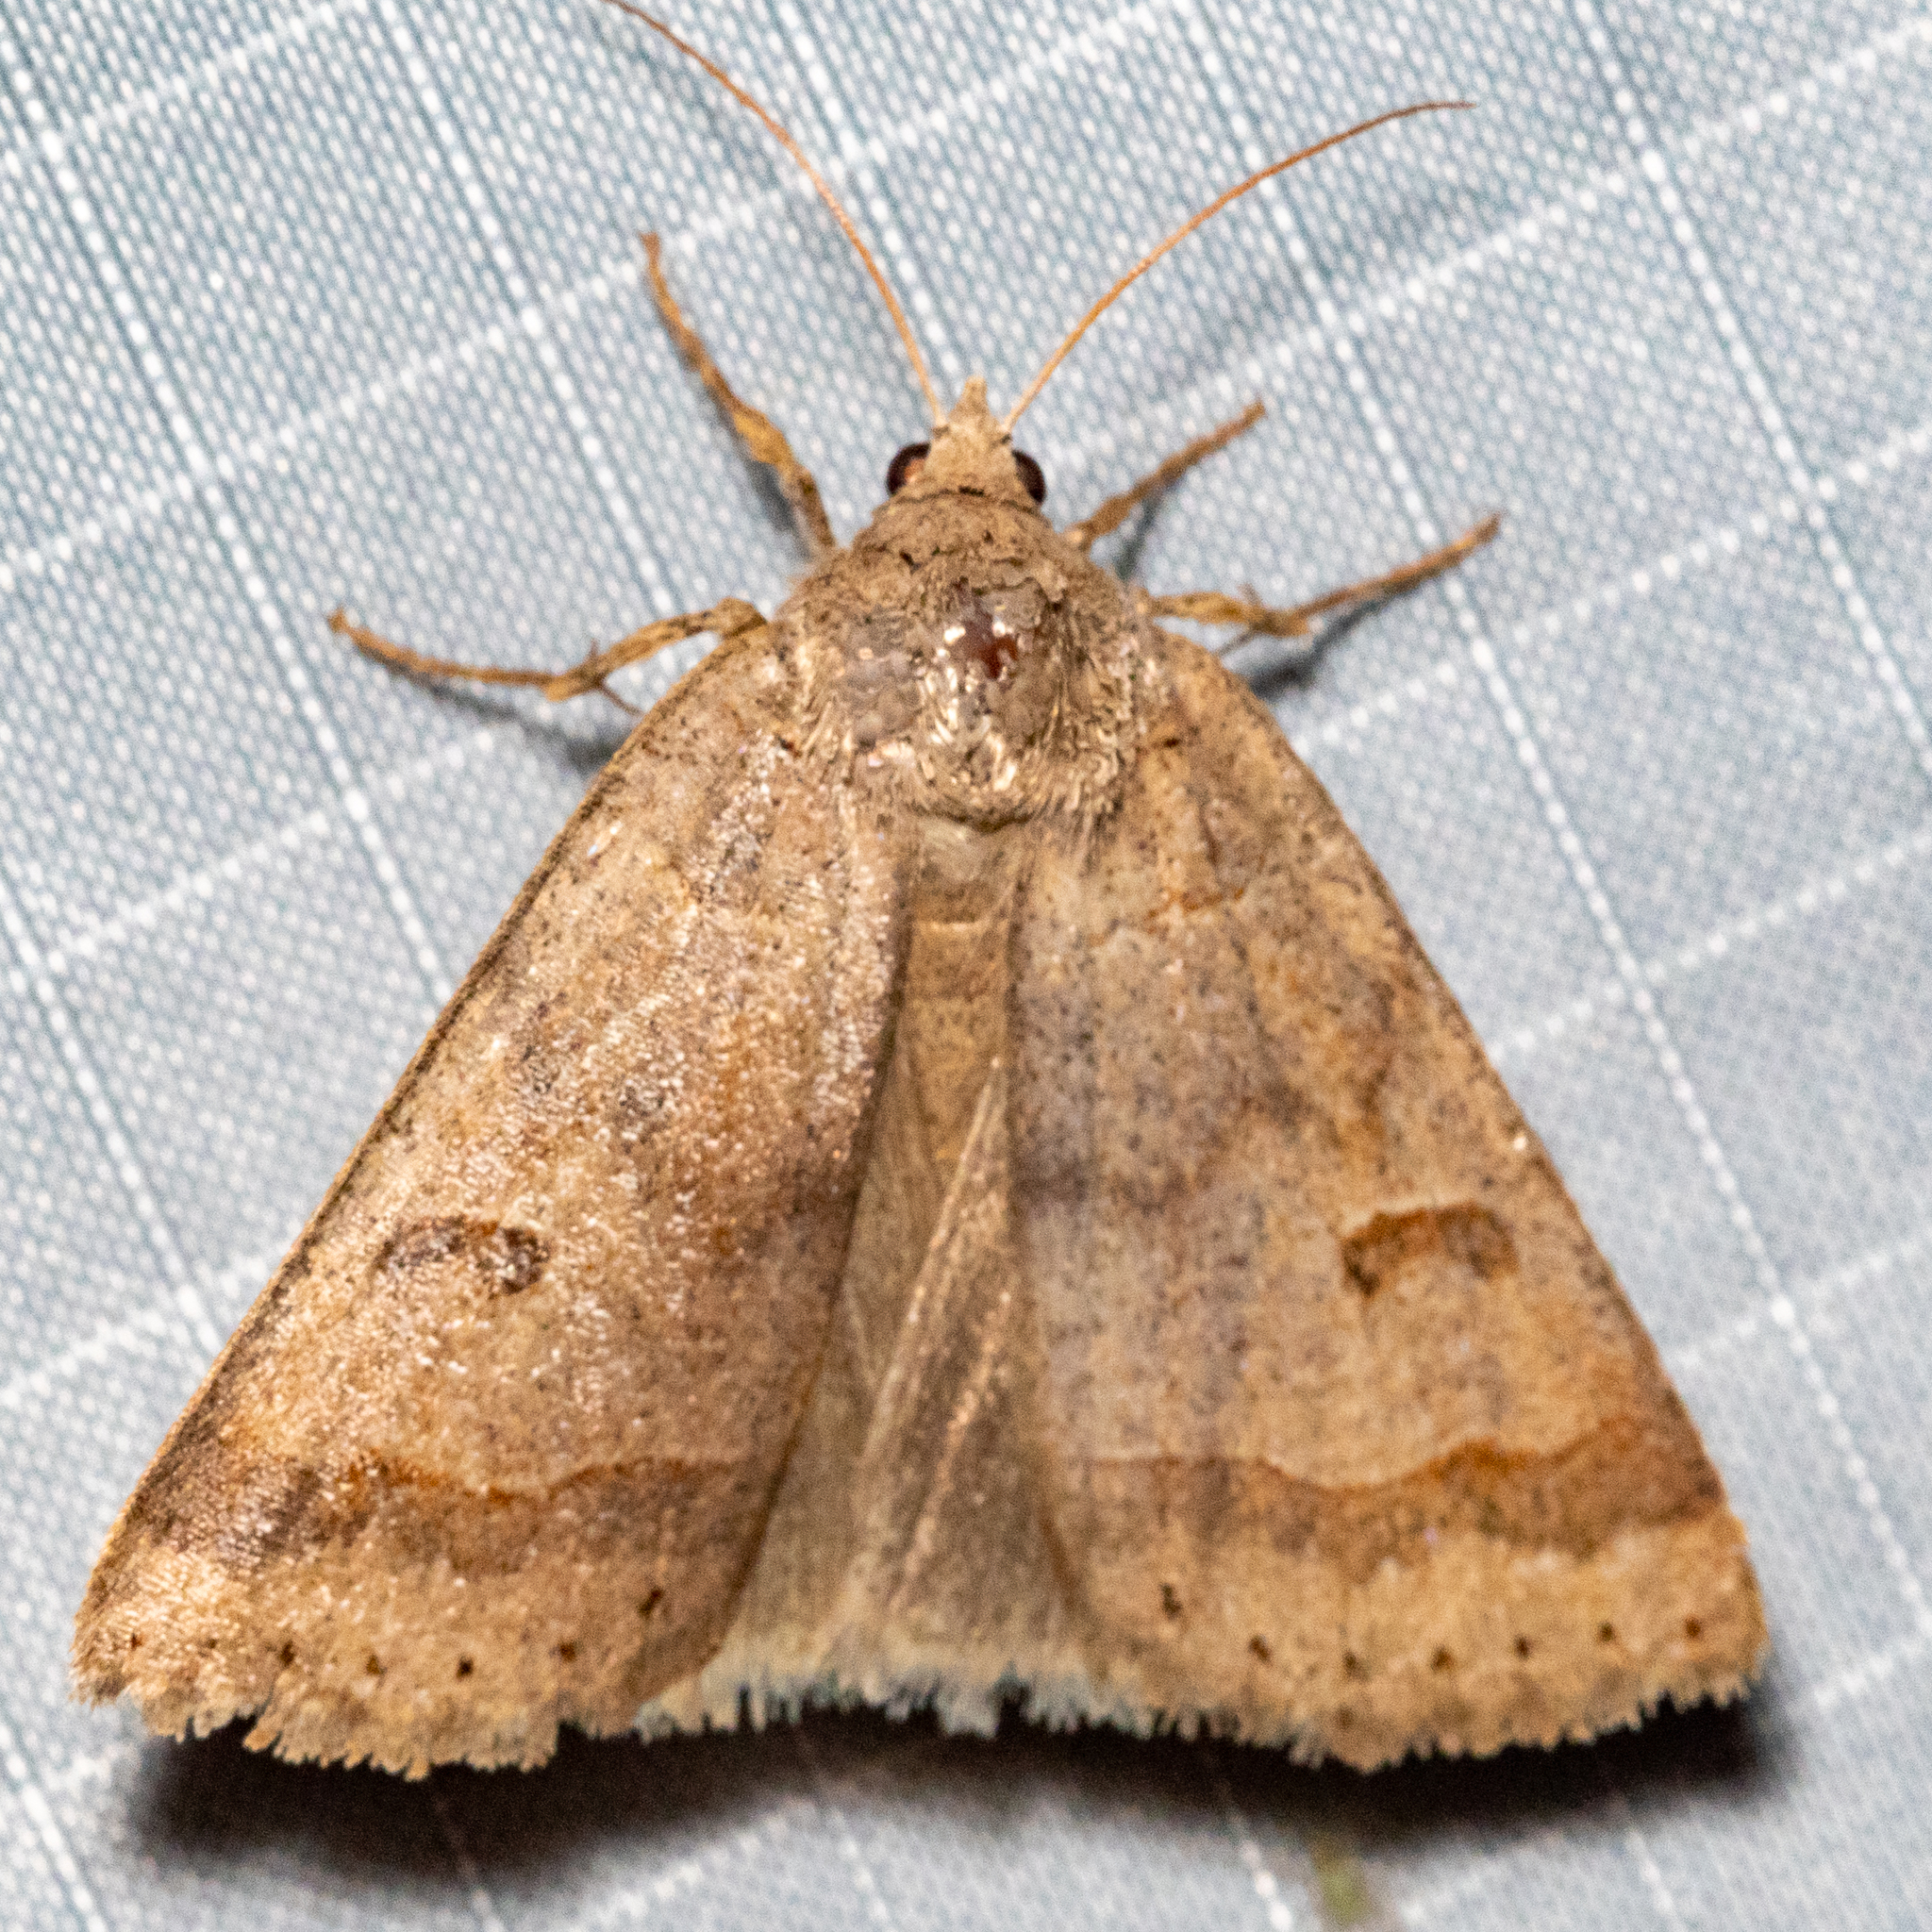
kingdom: Animalia
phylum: Arthropoda
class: Insecta
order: Lepidoptera
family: Erebidae
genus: Phoberia
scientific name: Phoberia atomaris
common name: Common oak moth
